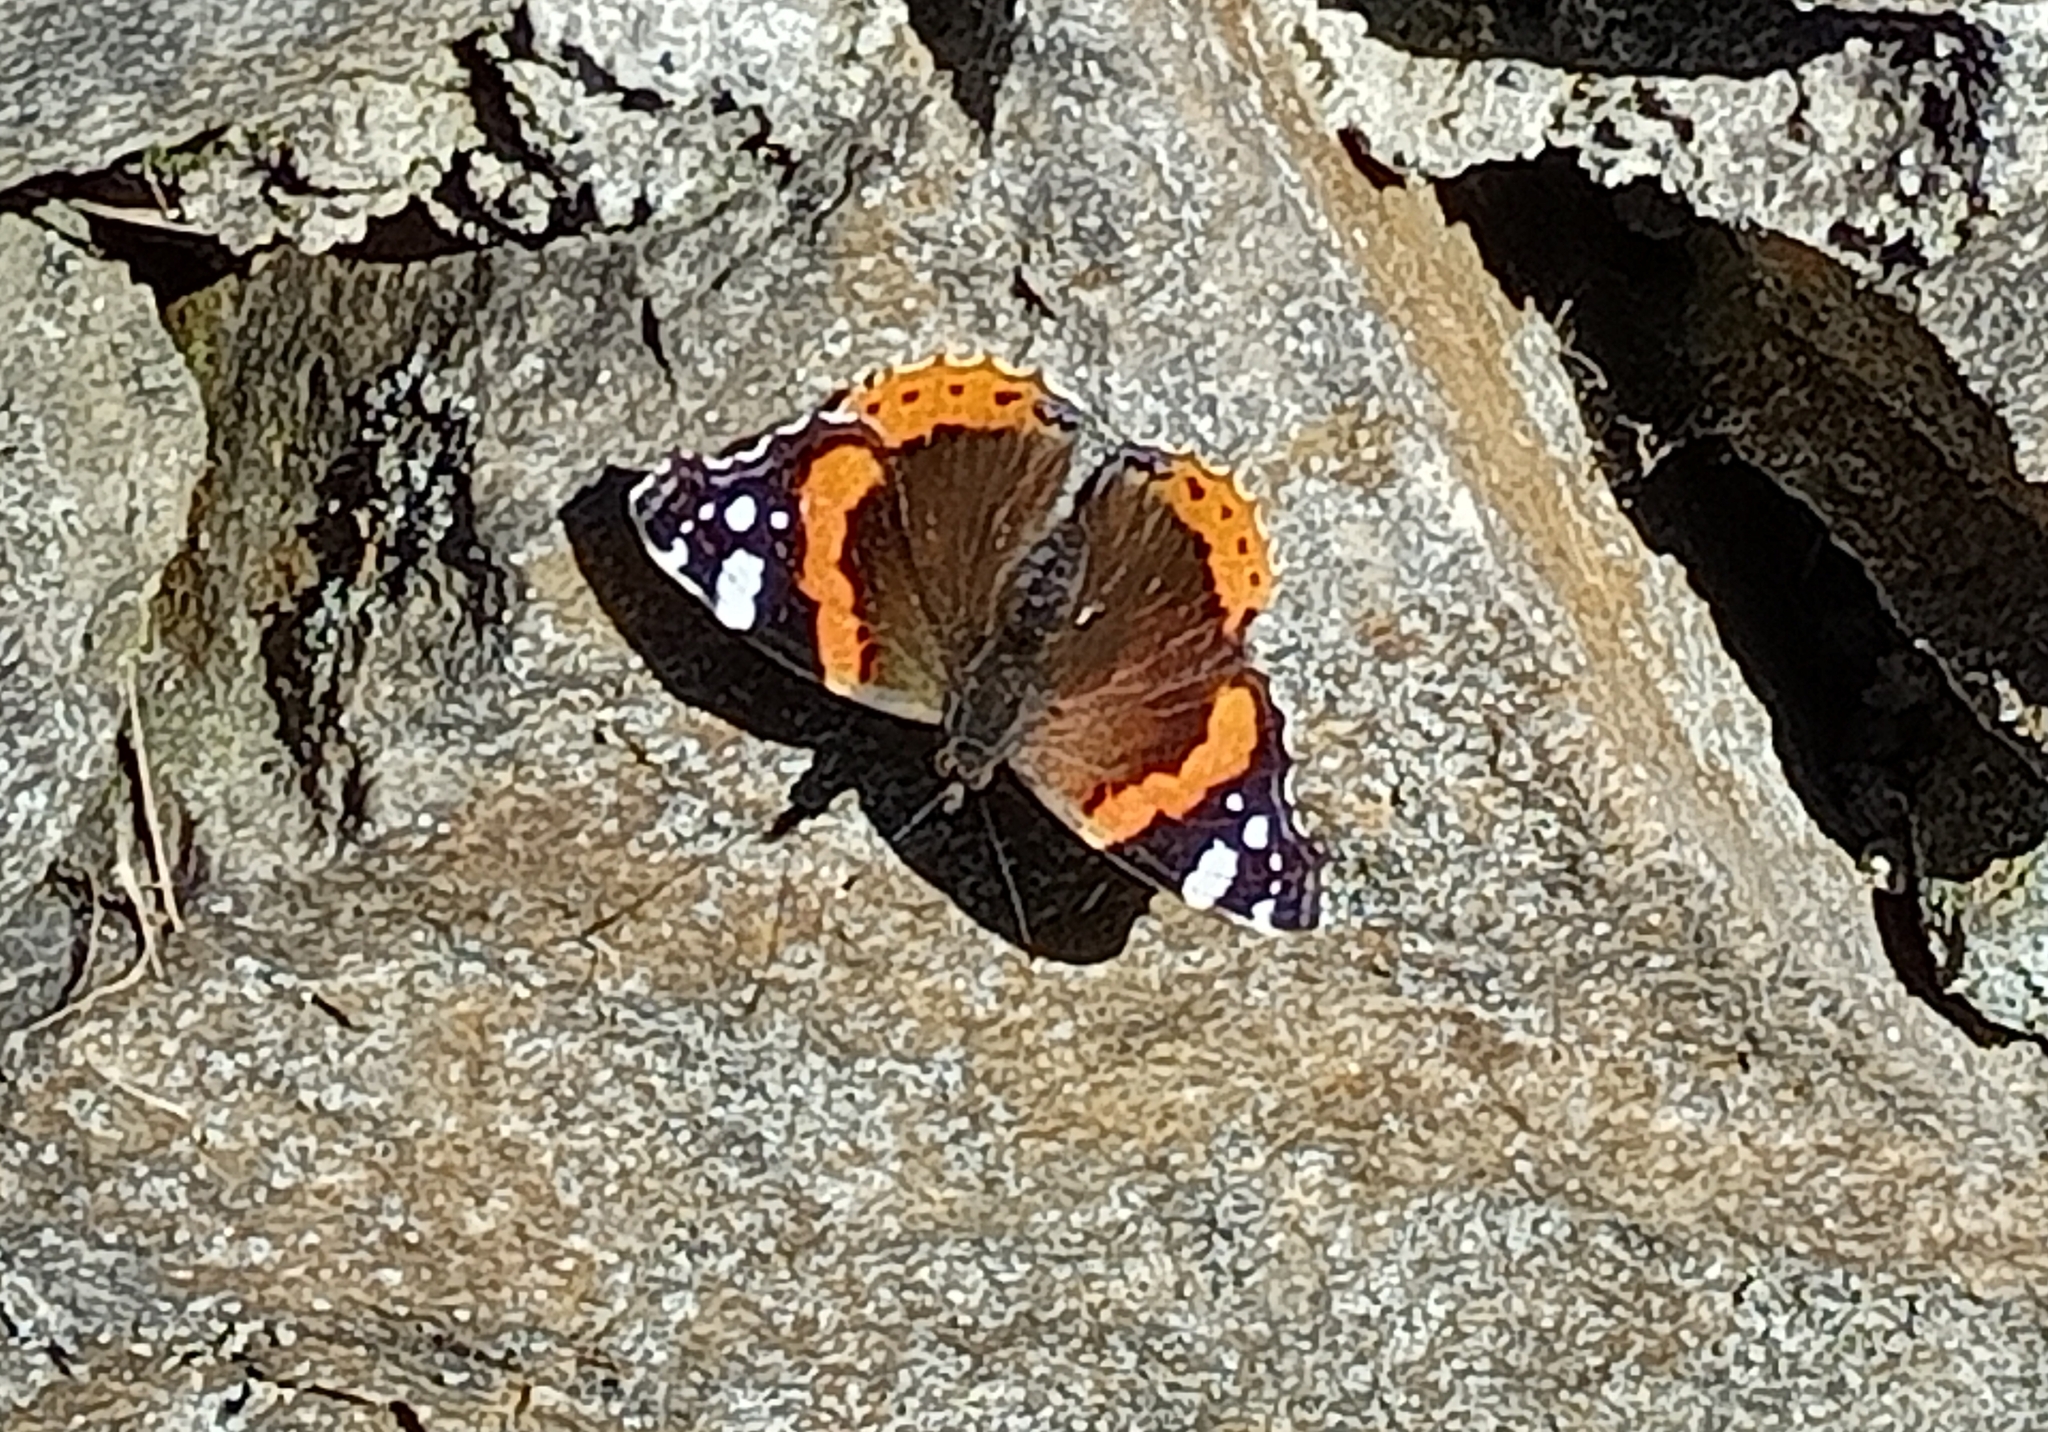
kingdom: Animalia
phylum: Arthropoda
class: Insecta
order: Lepidoptera
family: Nymphalidae
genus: Vanessa
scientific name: Vanessa atalanta
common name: Red admiral
